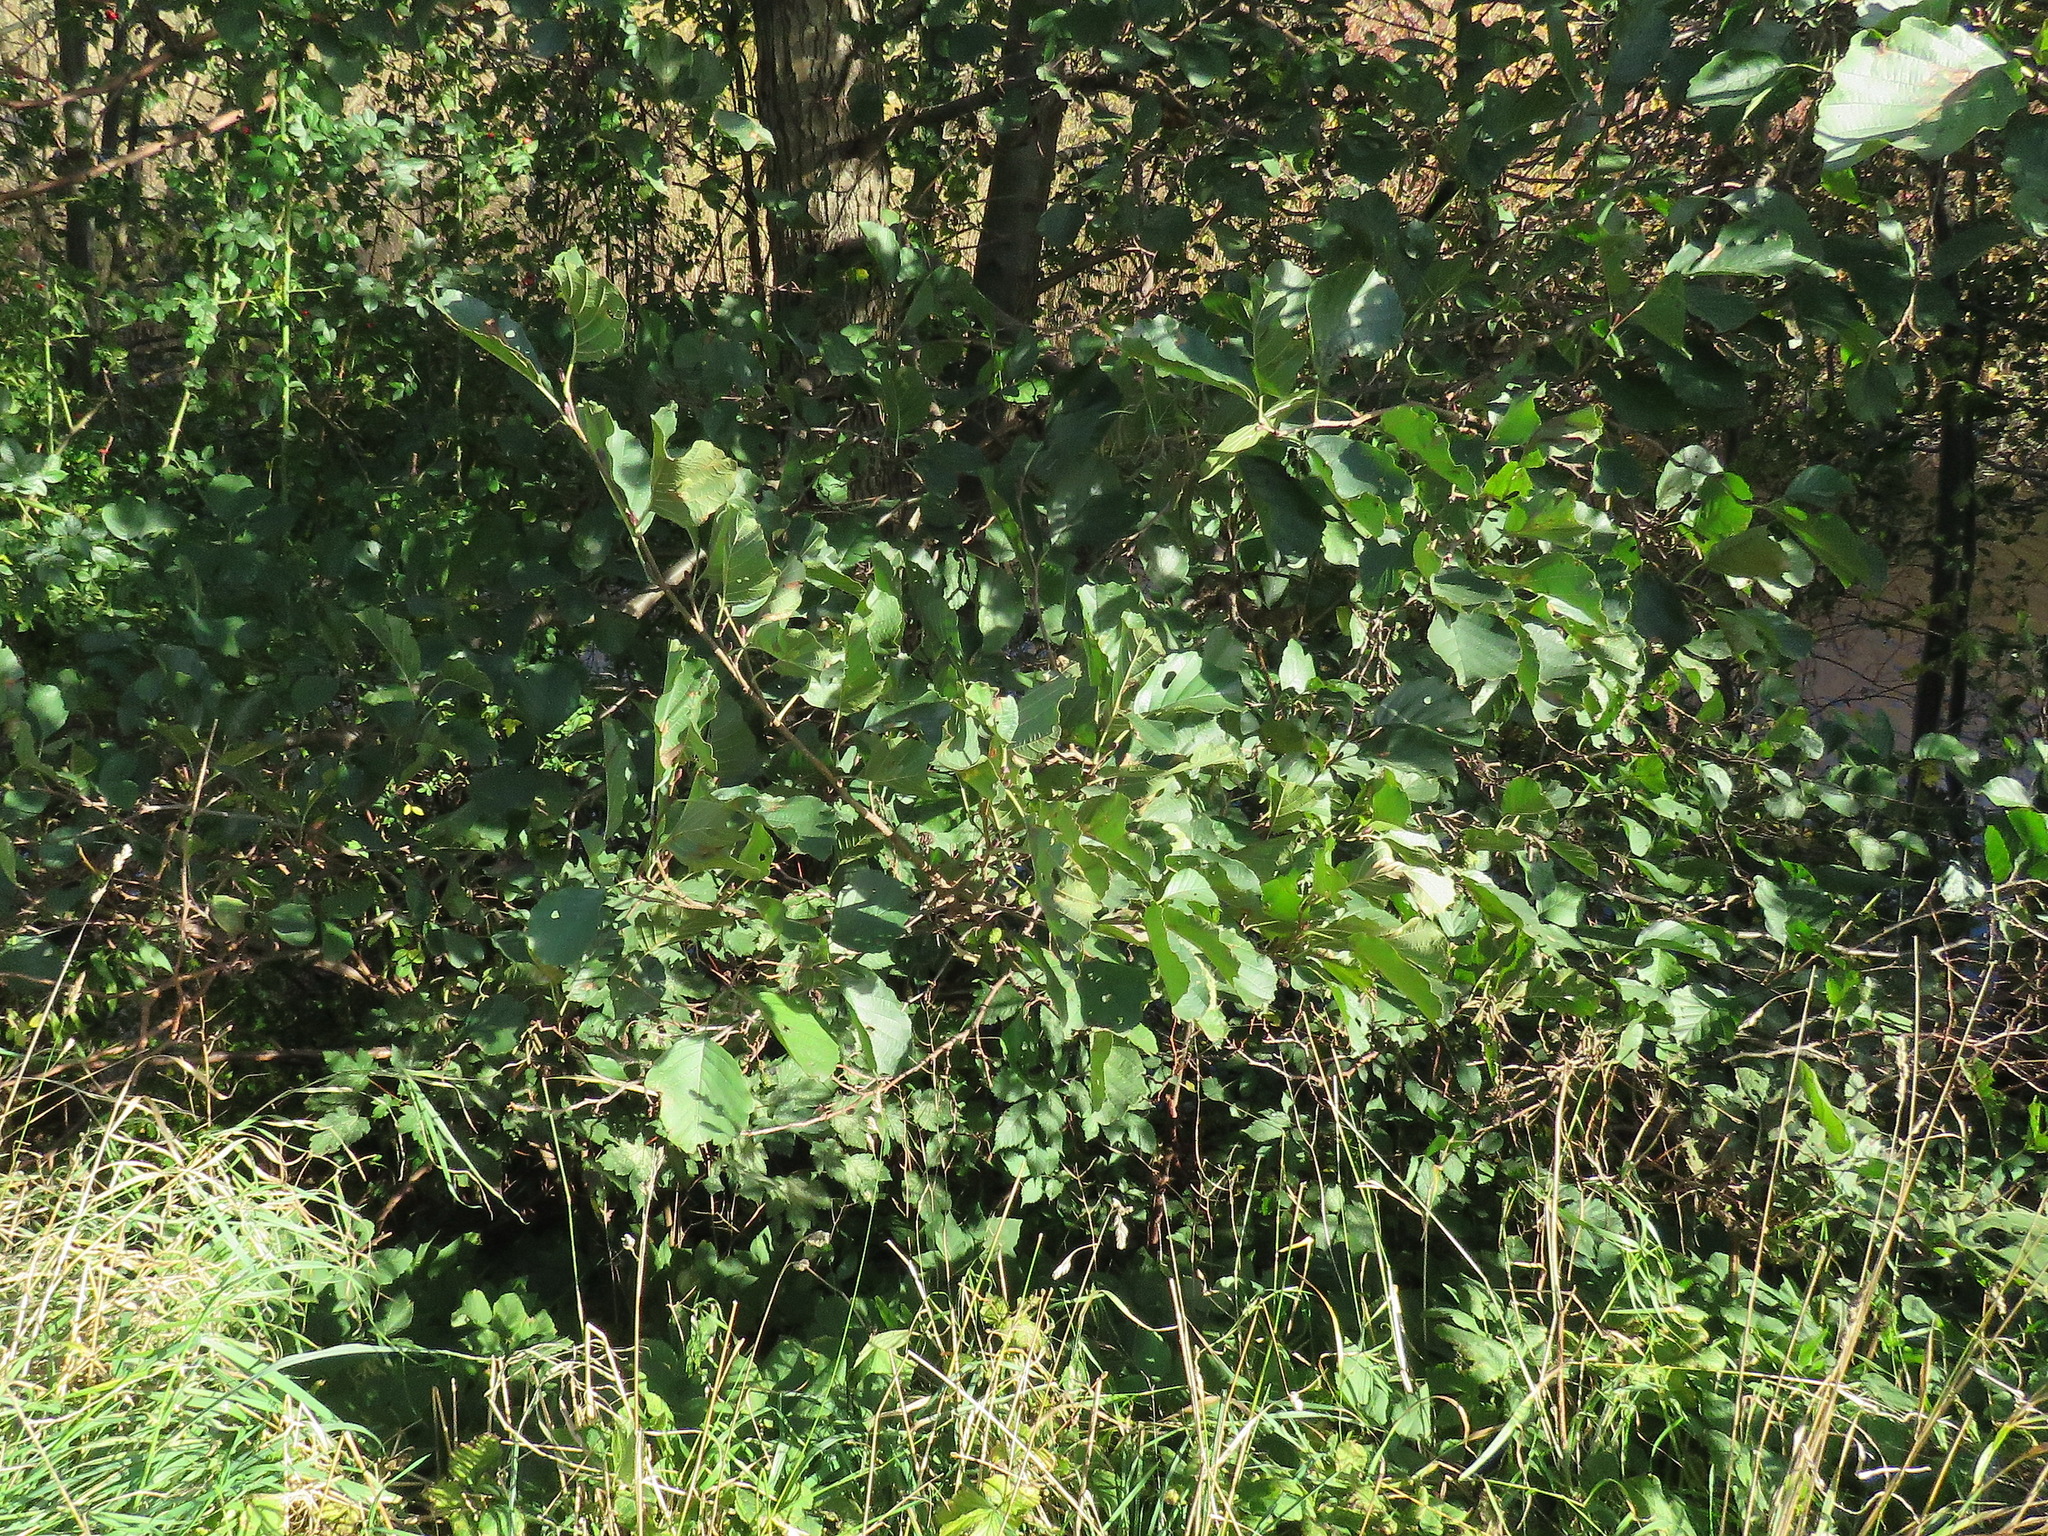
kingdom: Plantae
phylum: Tracheophyta
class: Magnoliopsida
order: Fagales
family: Betulaceae
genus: Alnus
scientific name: Alnus glutinosa
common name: Black alder
